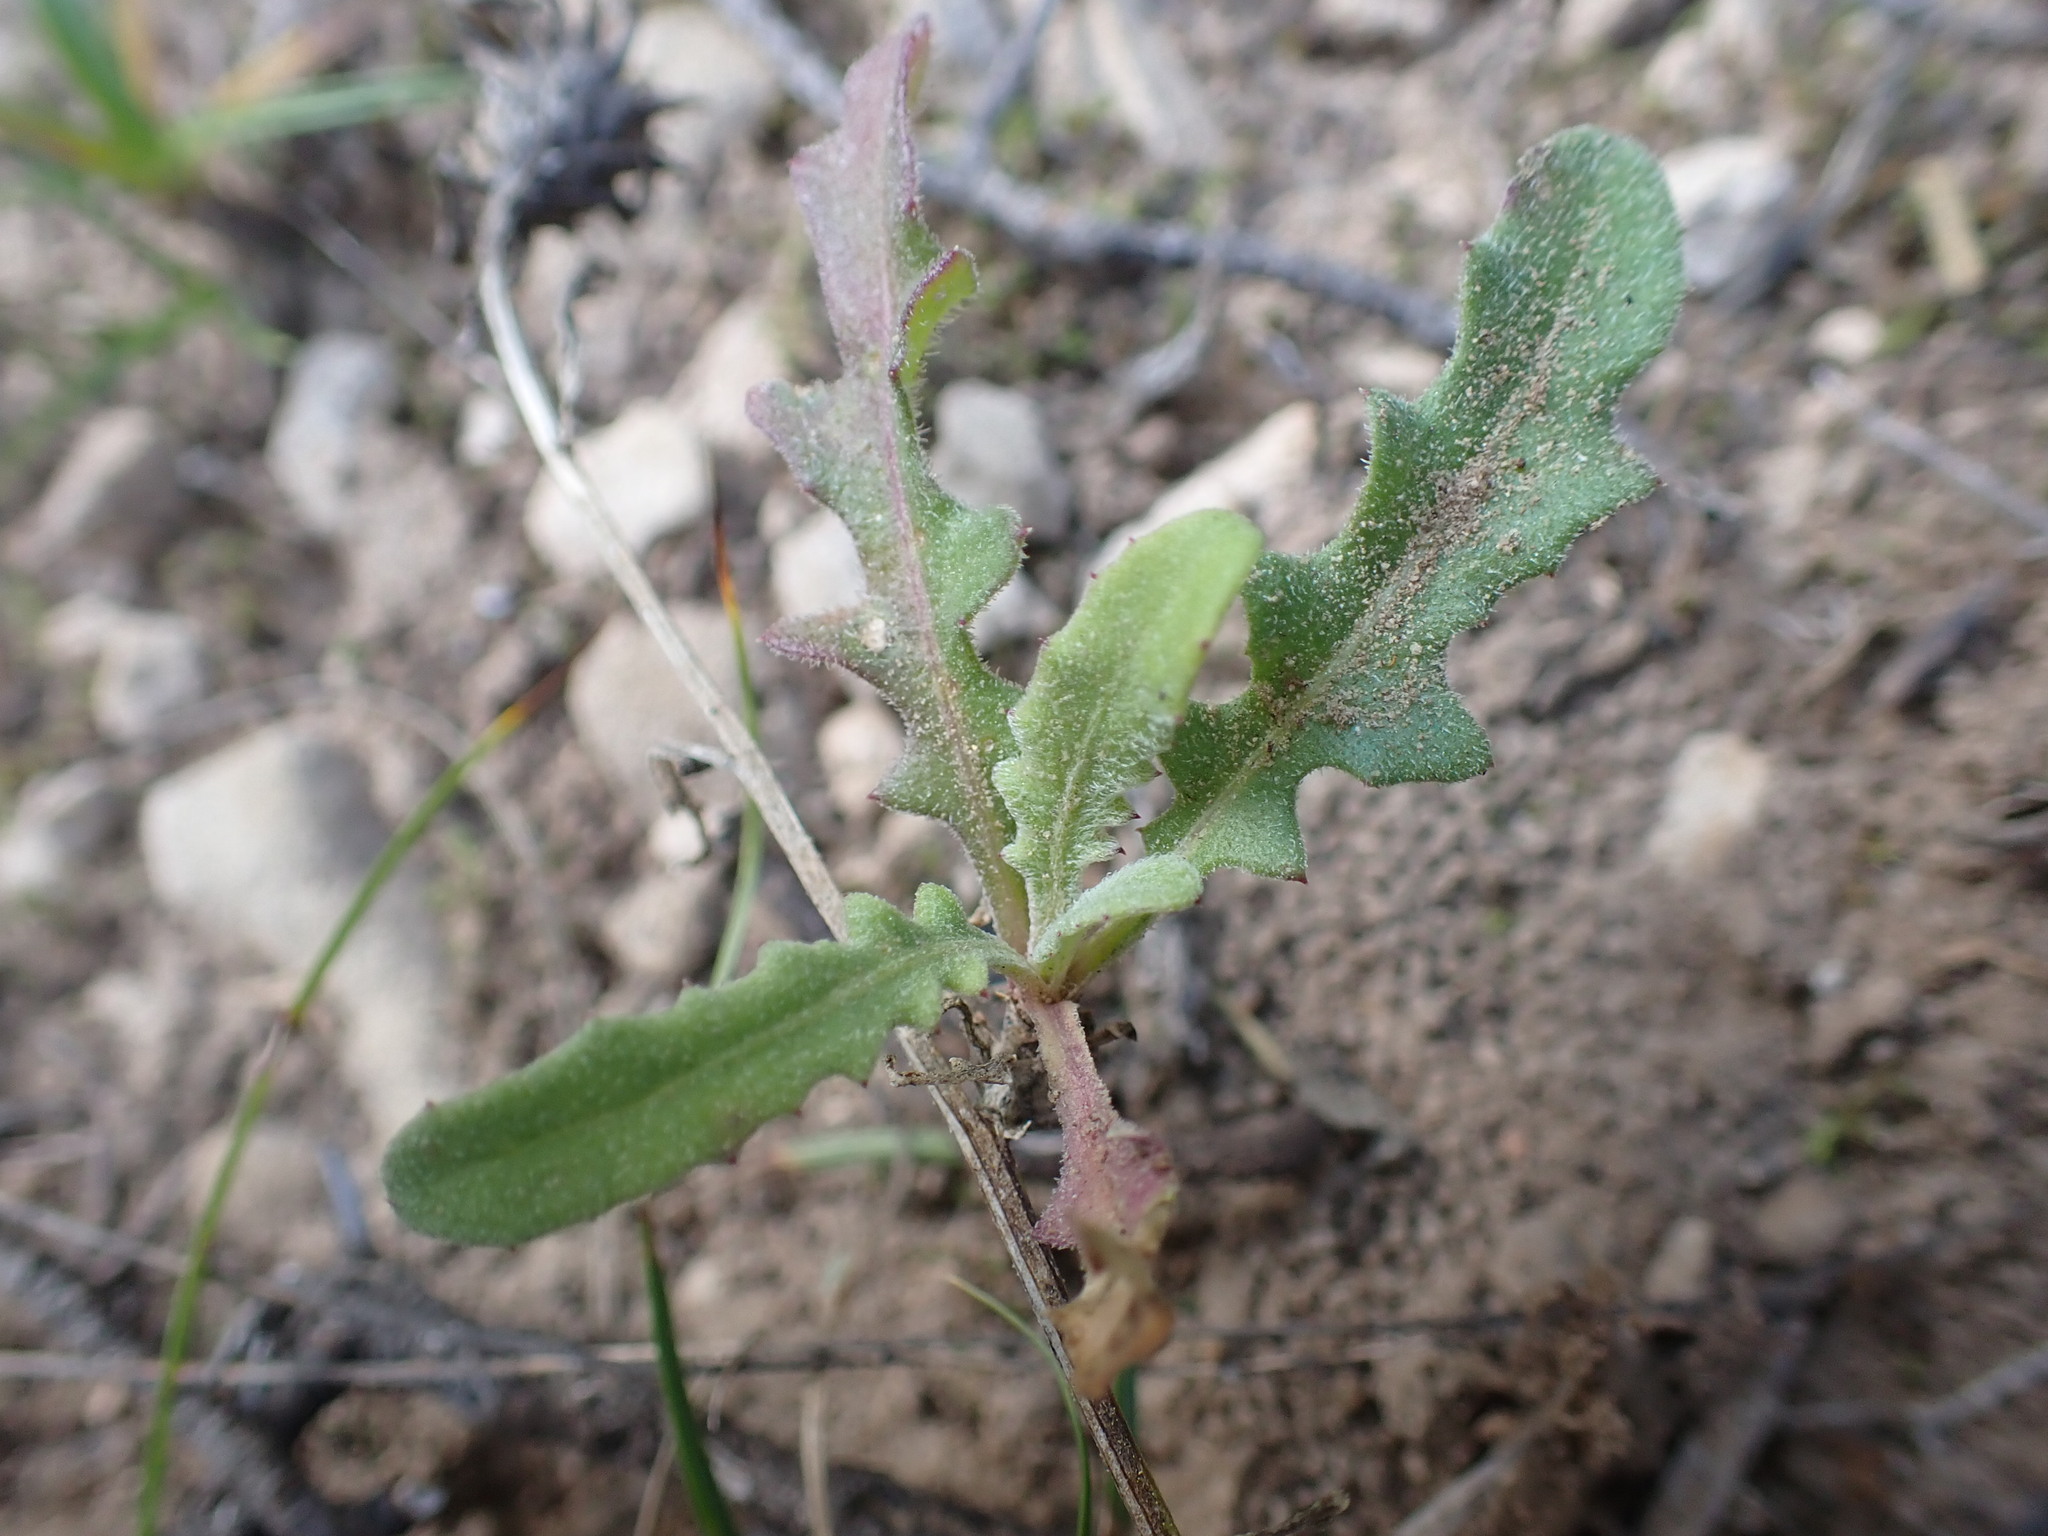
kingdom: Plantae
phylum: Tracheophyta
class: Magnoliopsida
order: Asterales
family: Asteraceae
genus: Centaurea
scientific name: Centaurea aspera
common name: Rough star-thistle
